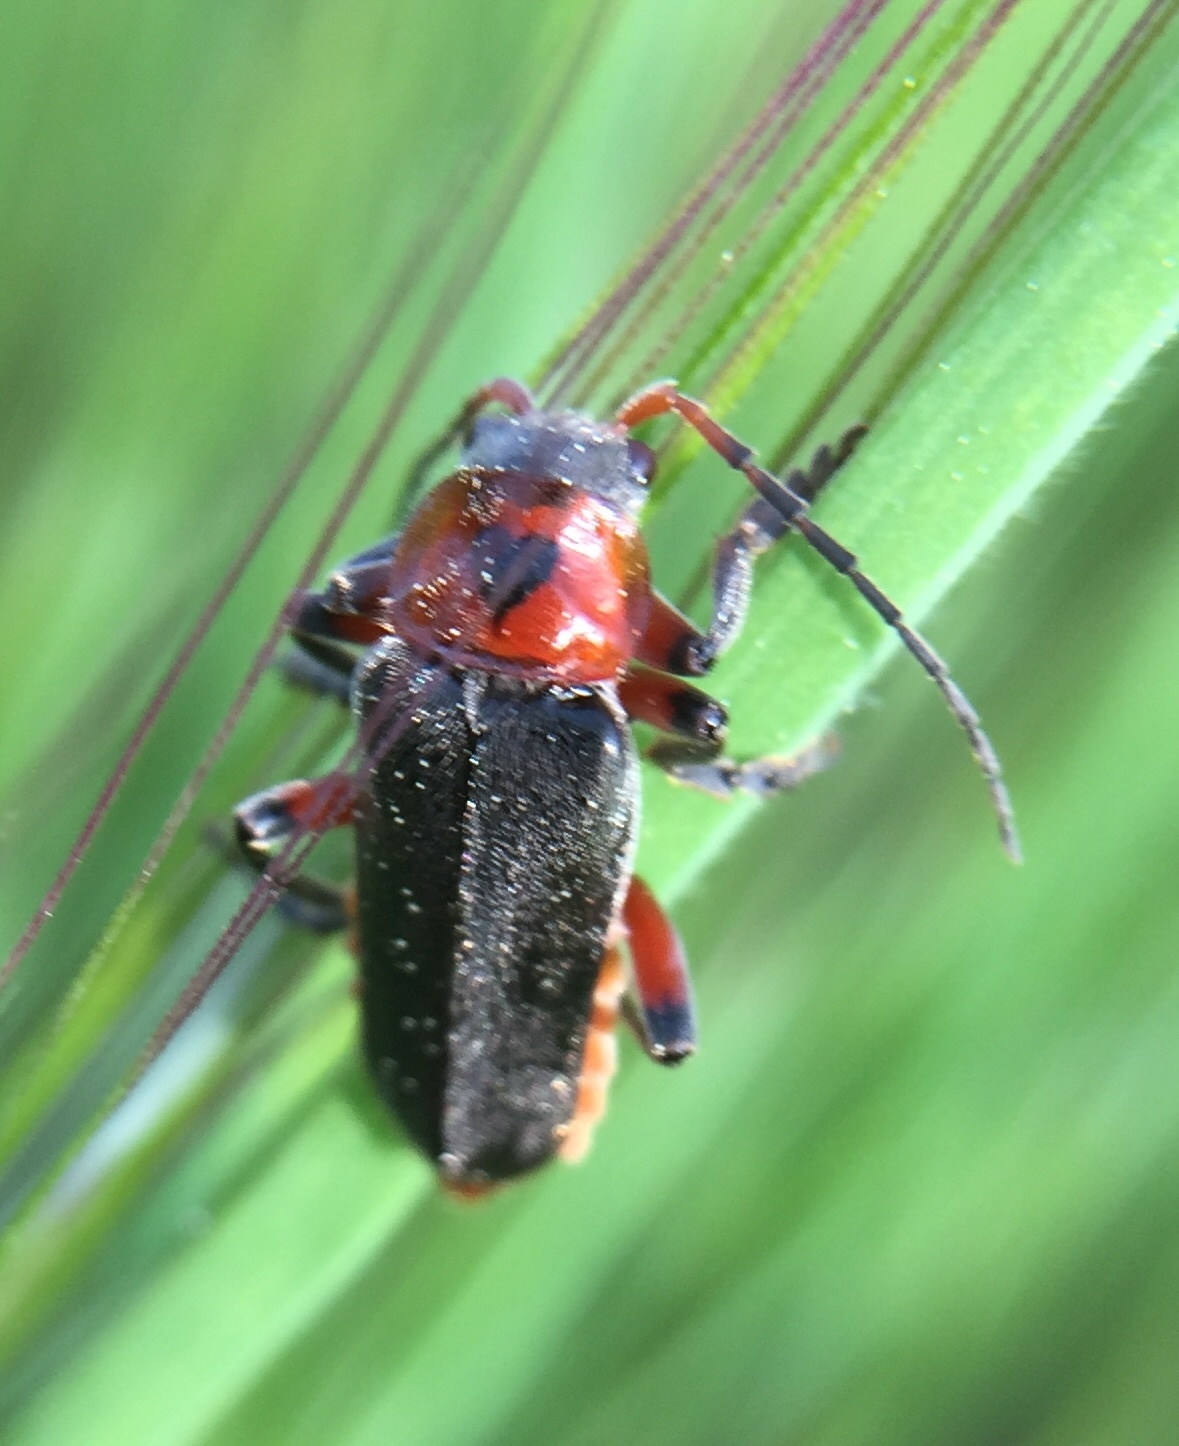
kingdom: Animalia
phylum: Arthropoda
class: Insecta
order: Coleoptera
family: Cantharidae
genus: Cantharis
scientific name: Cantharis rustica
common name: Soldier beetle
